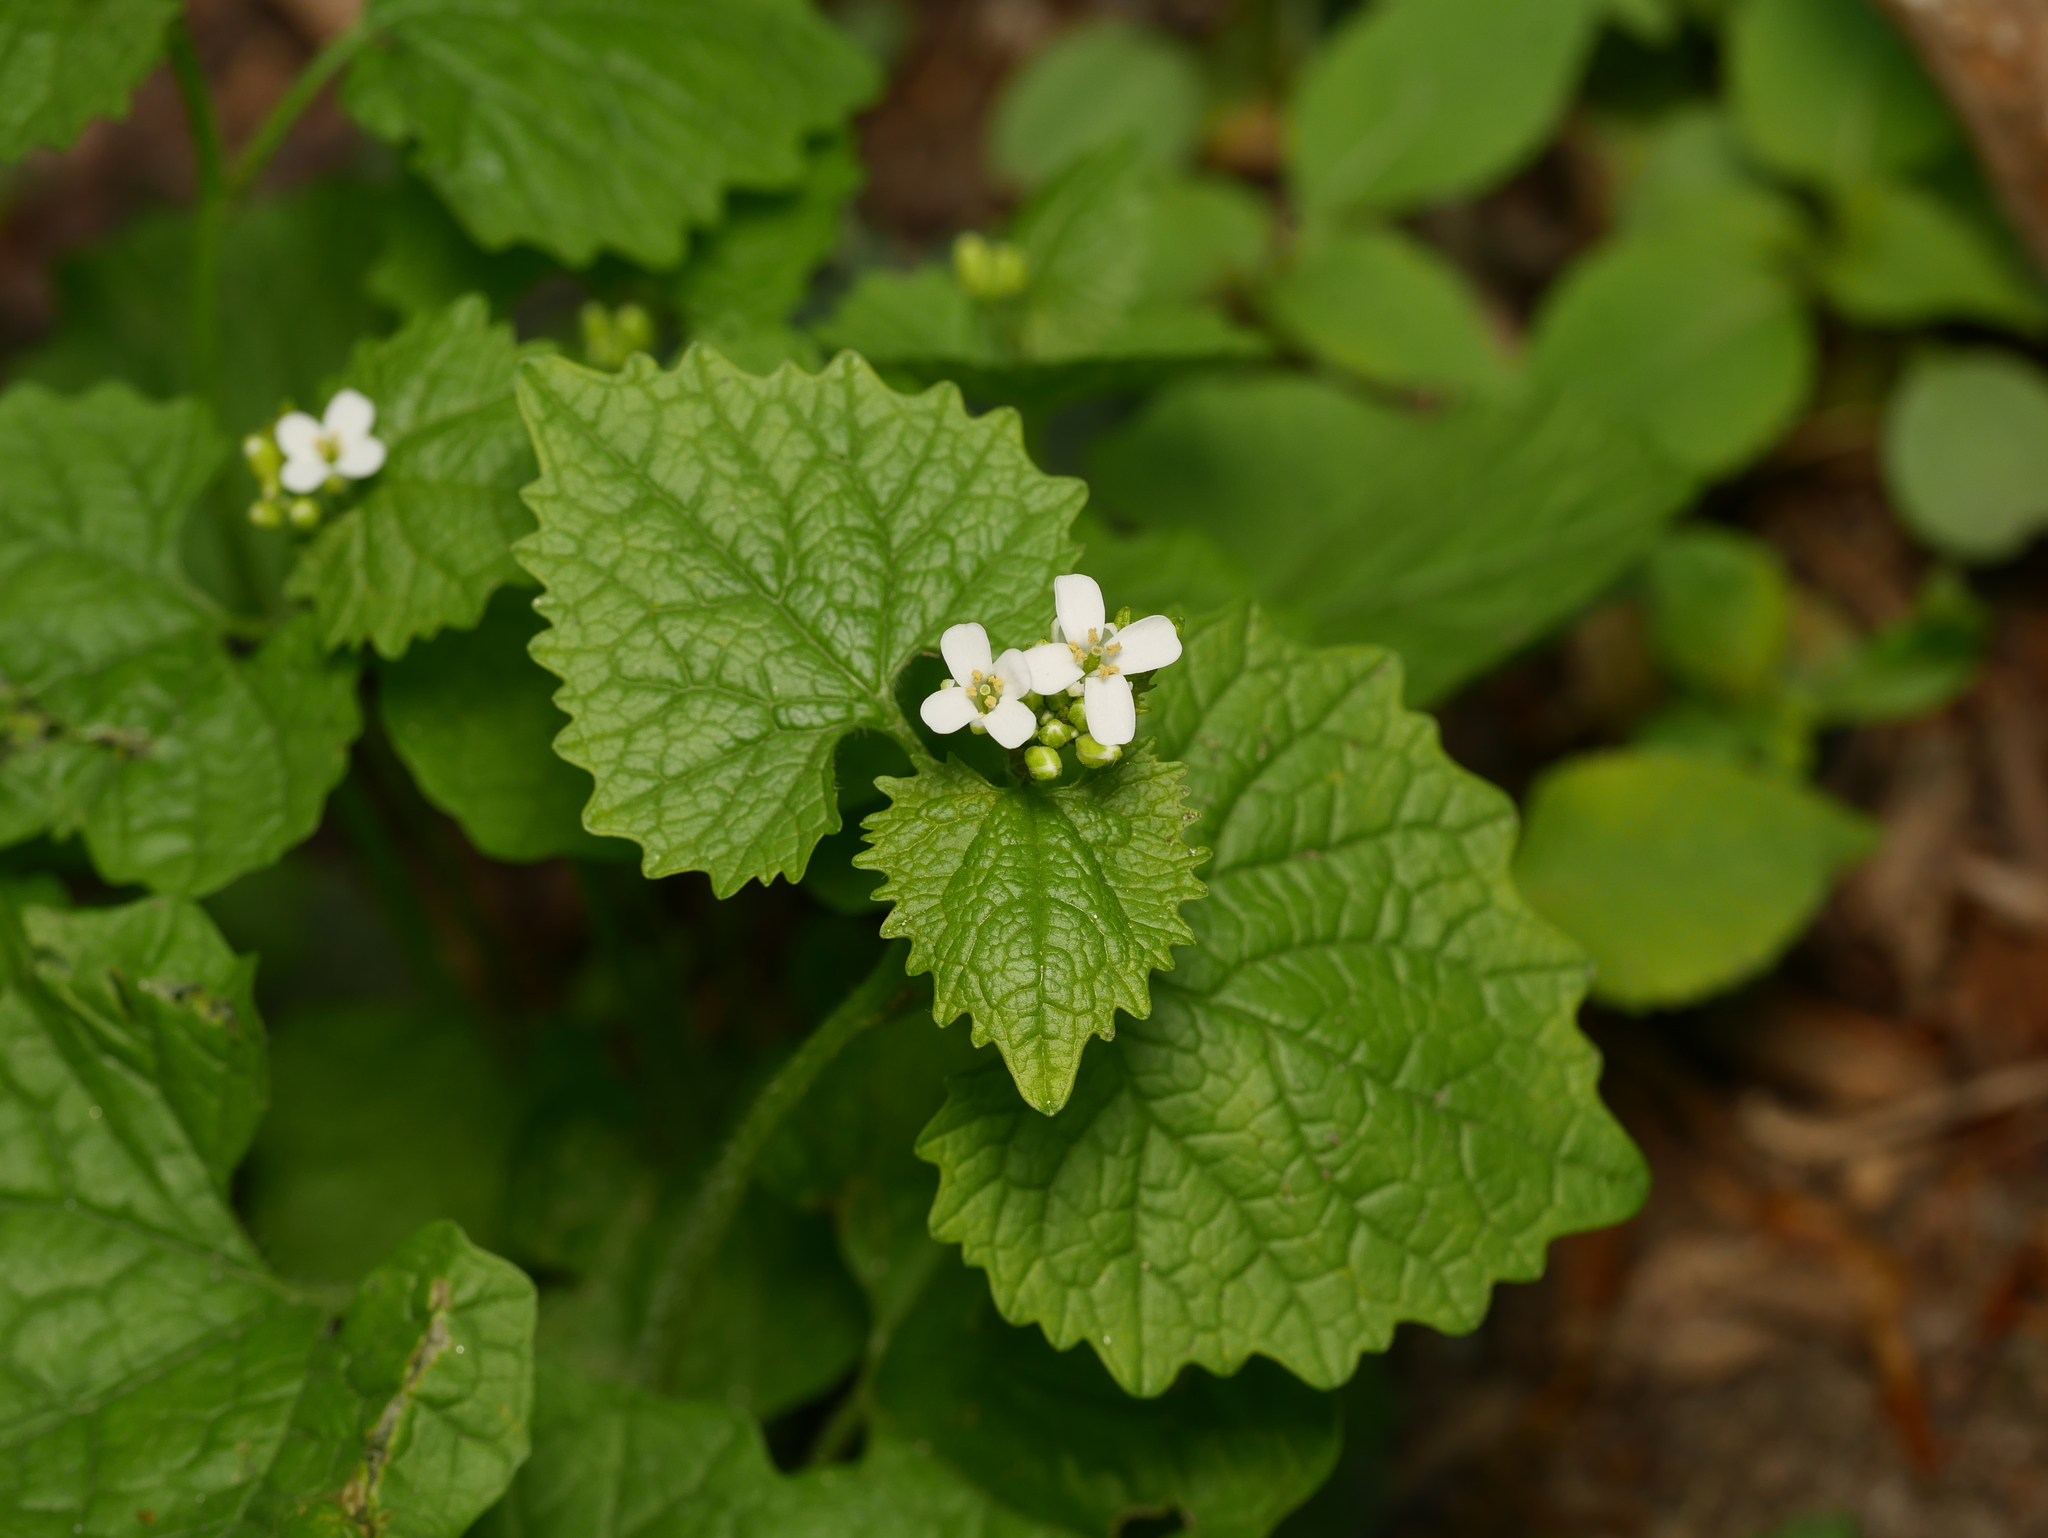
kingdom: Plantae
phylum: Tracheophyta
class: Magnoliopsida
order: Brassicales
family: Brassicaceae
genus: Alliaria
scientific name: Alliaria petiolata
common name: Garlic mustard
